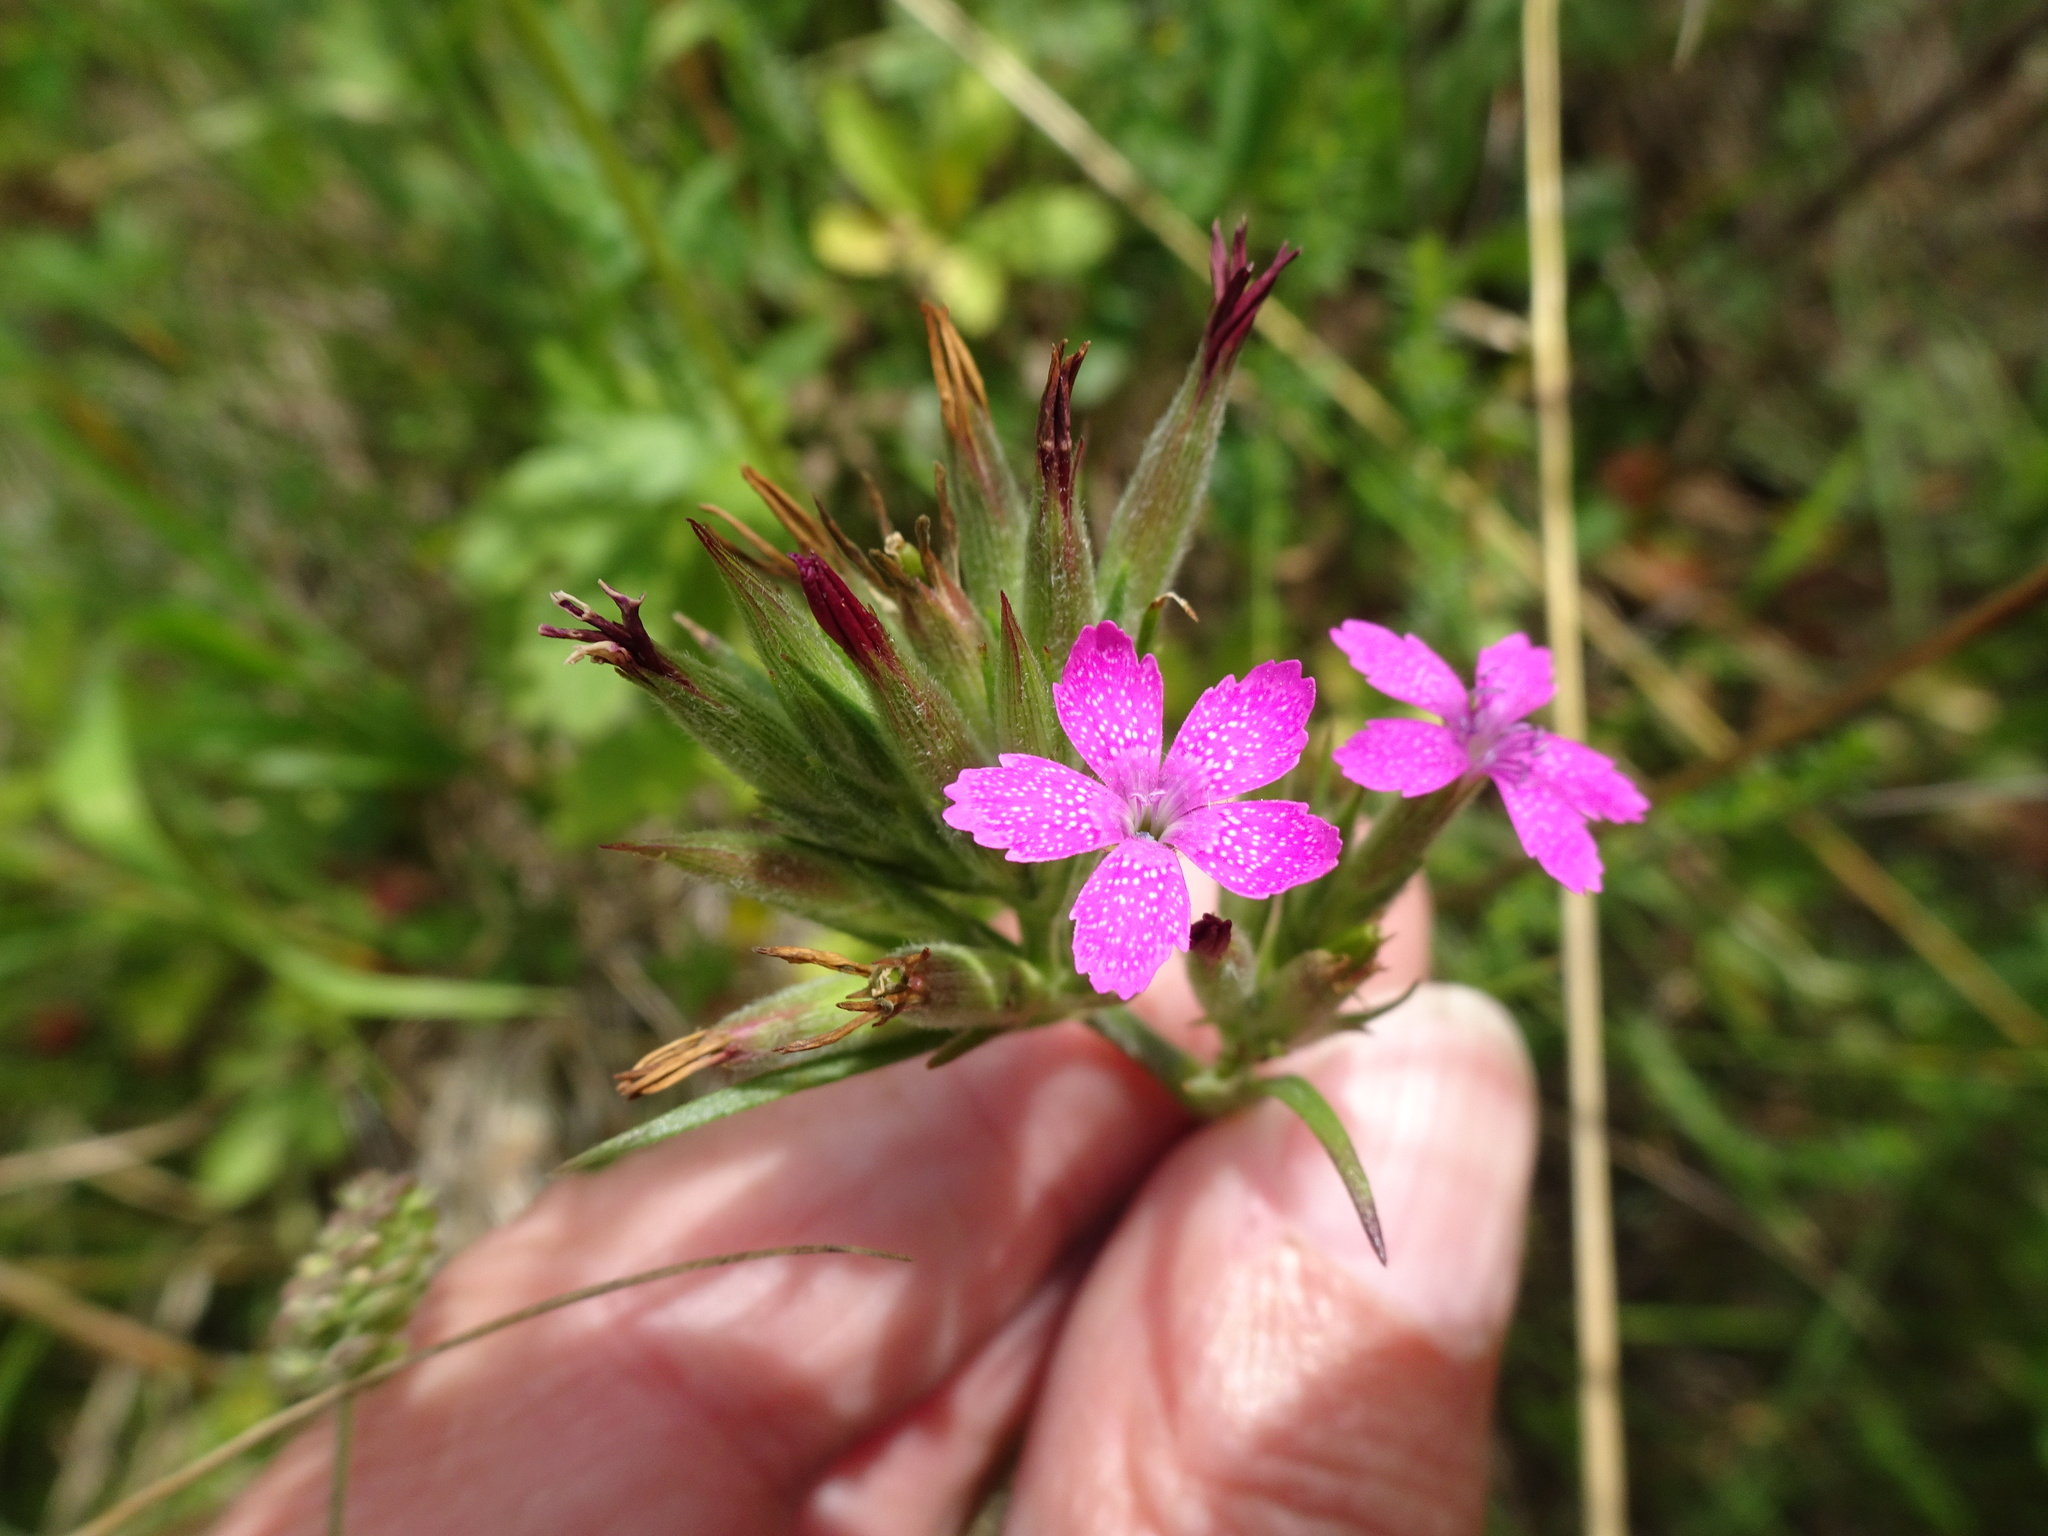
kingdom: Plantae
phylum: Tracheophyta
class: Magnoliopsida
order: Caryophyllales
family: Caryophyllaceae
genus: Dianthus
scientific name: Dianthus armeria
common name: Deptford pink
